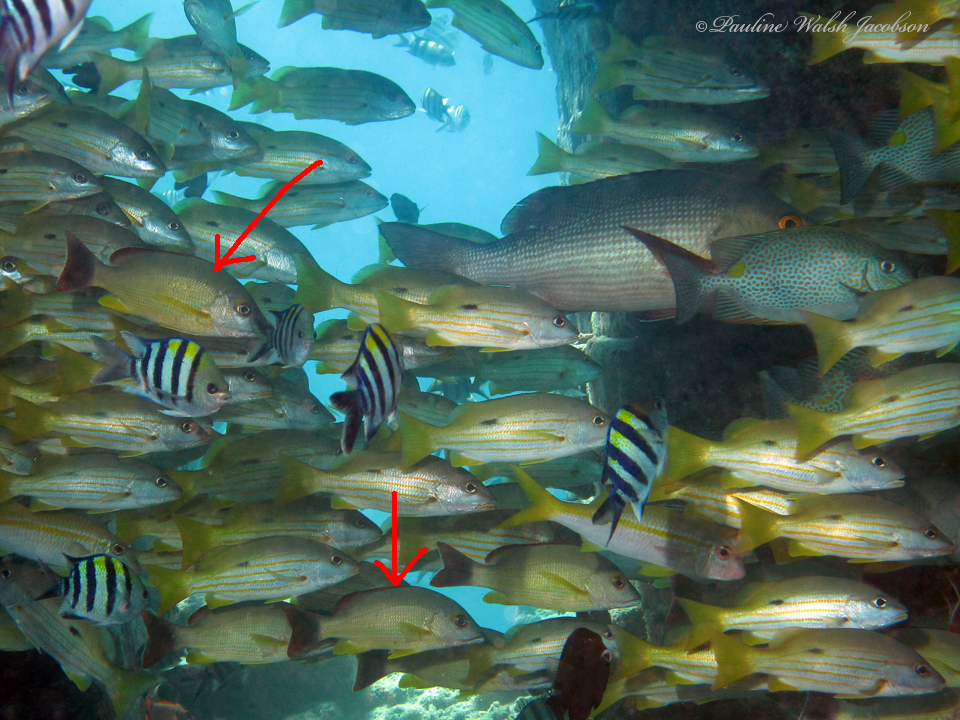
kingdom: Animalia
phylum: Chordata
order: Perciformes
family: Lutjanidae
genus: Lutjanus
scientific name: Lutjanus fulvus
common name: Blacktail snapper
